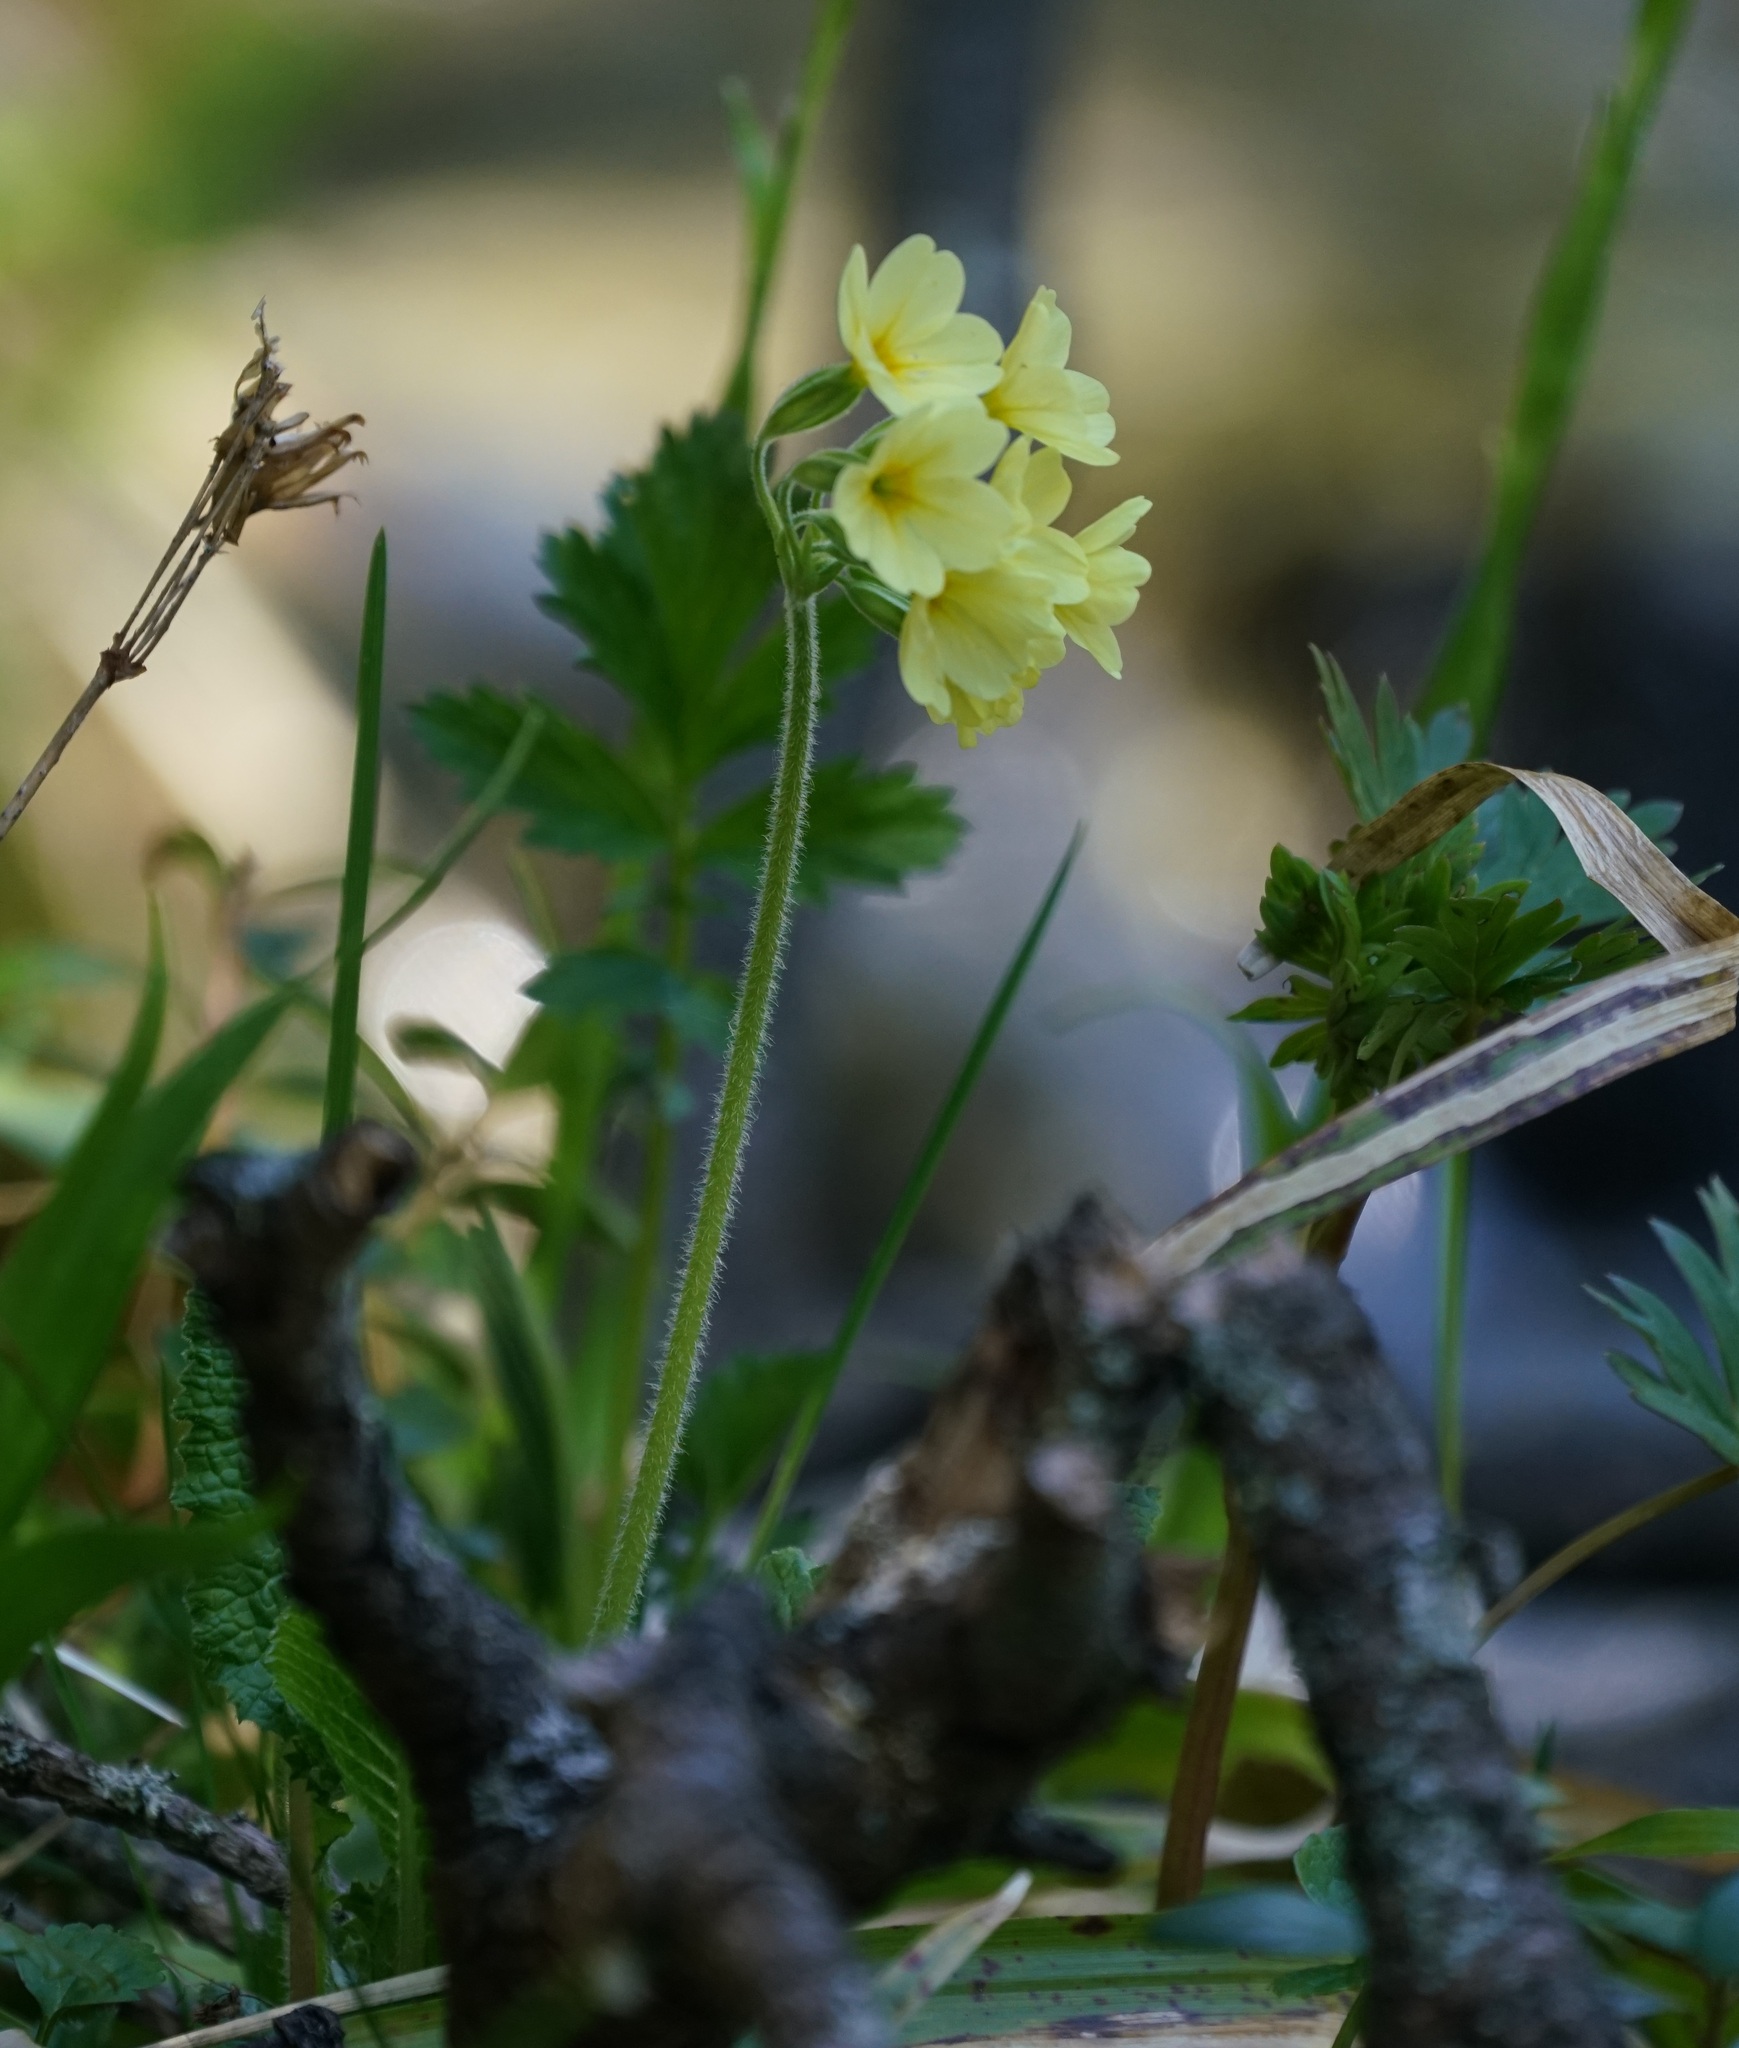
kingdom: Plantae
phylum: Tracheophyta
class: Magnoliopsida
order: Ericales
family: Primulaceae
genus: Primula
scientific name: Primula elatior
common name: Oxlip
